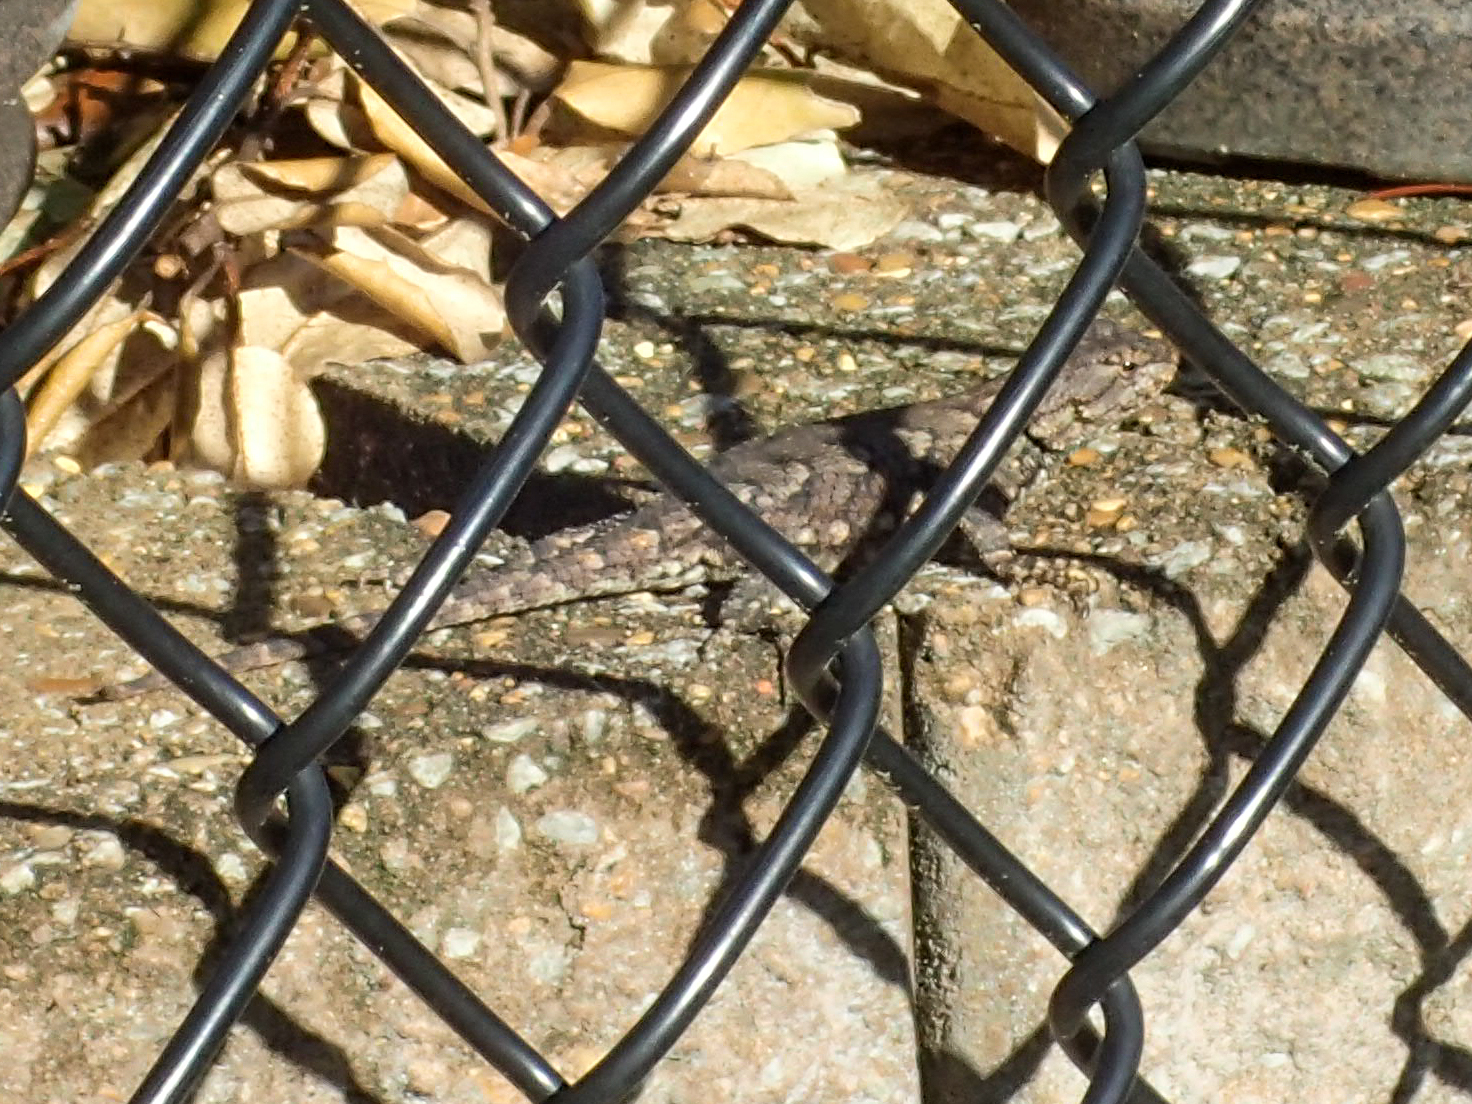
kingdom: Animalia
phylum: Chordata
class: Squamata
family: Phrynosomatidae
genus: Sceloporus
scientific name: Sceloporus undulatus
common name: Eastern fence lizard
